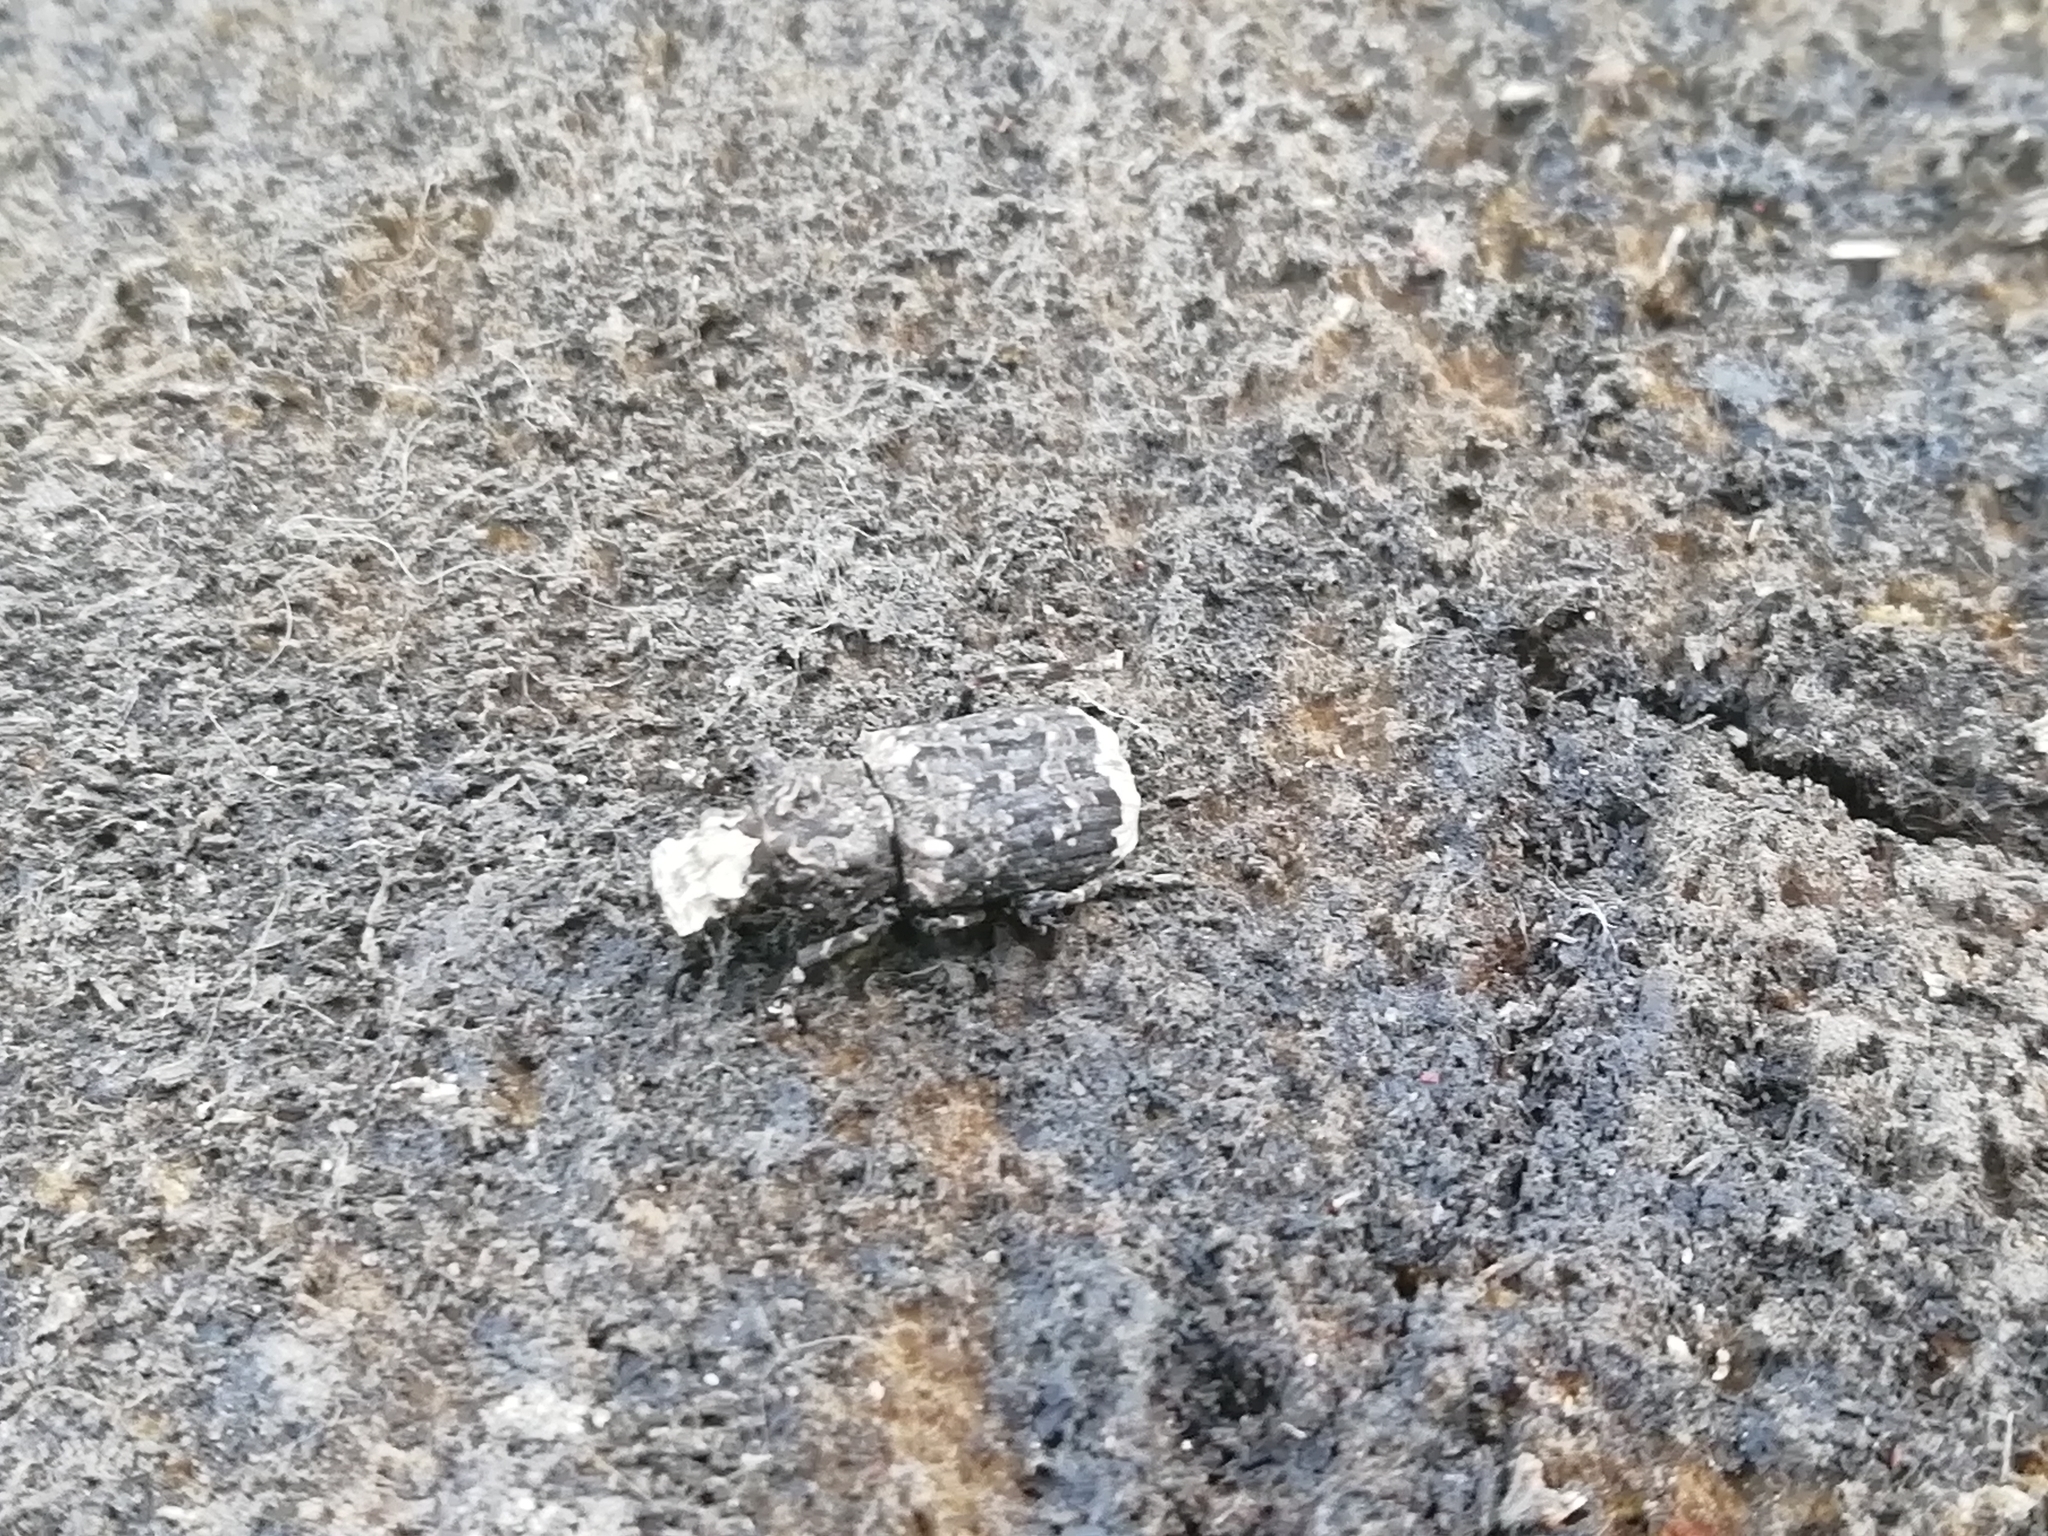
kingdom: Animalia
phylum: Arthropoda
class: Insecta
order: Coleoptera
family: Anthribidae
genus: Platyrhinus
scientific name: Platyrhinus resinosus
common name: Cramp-ball fungus weevil
